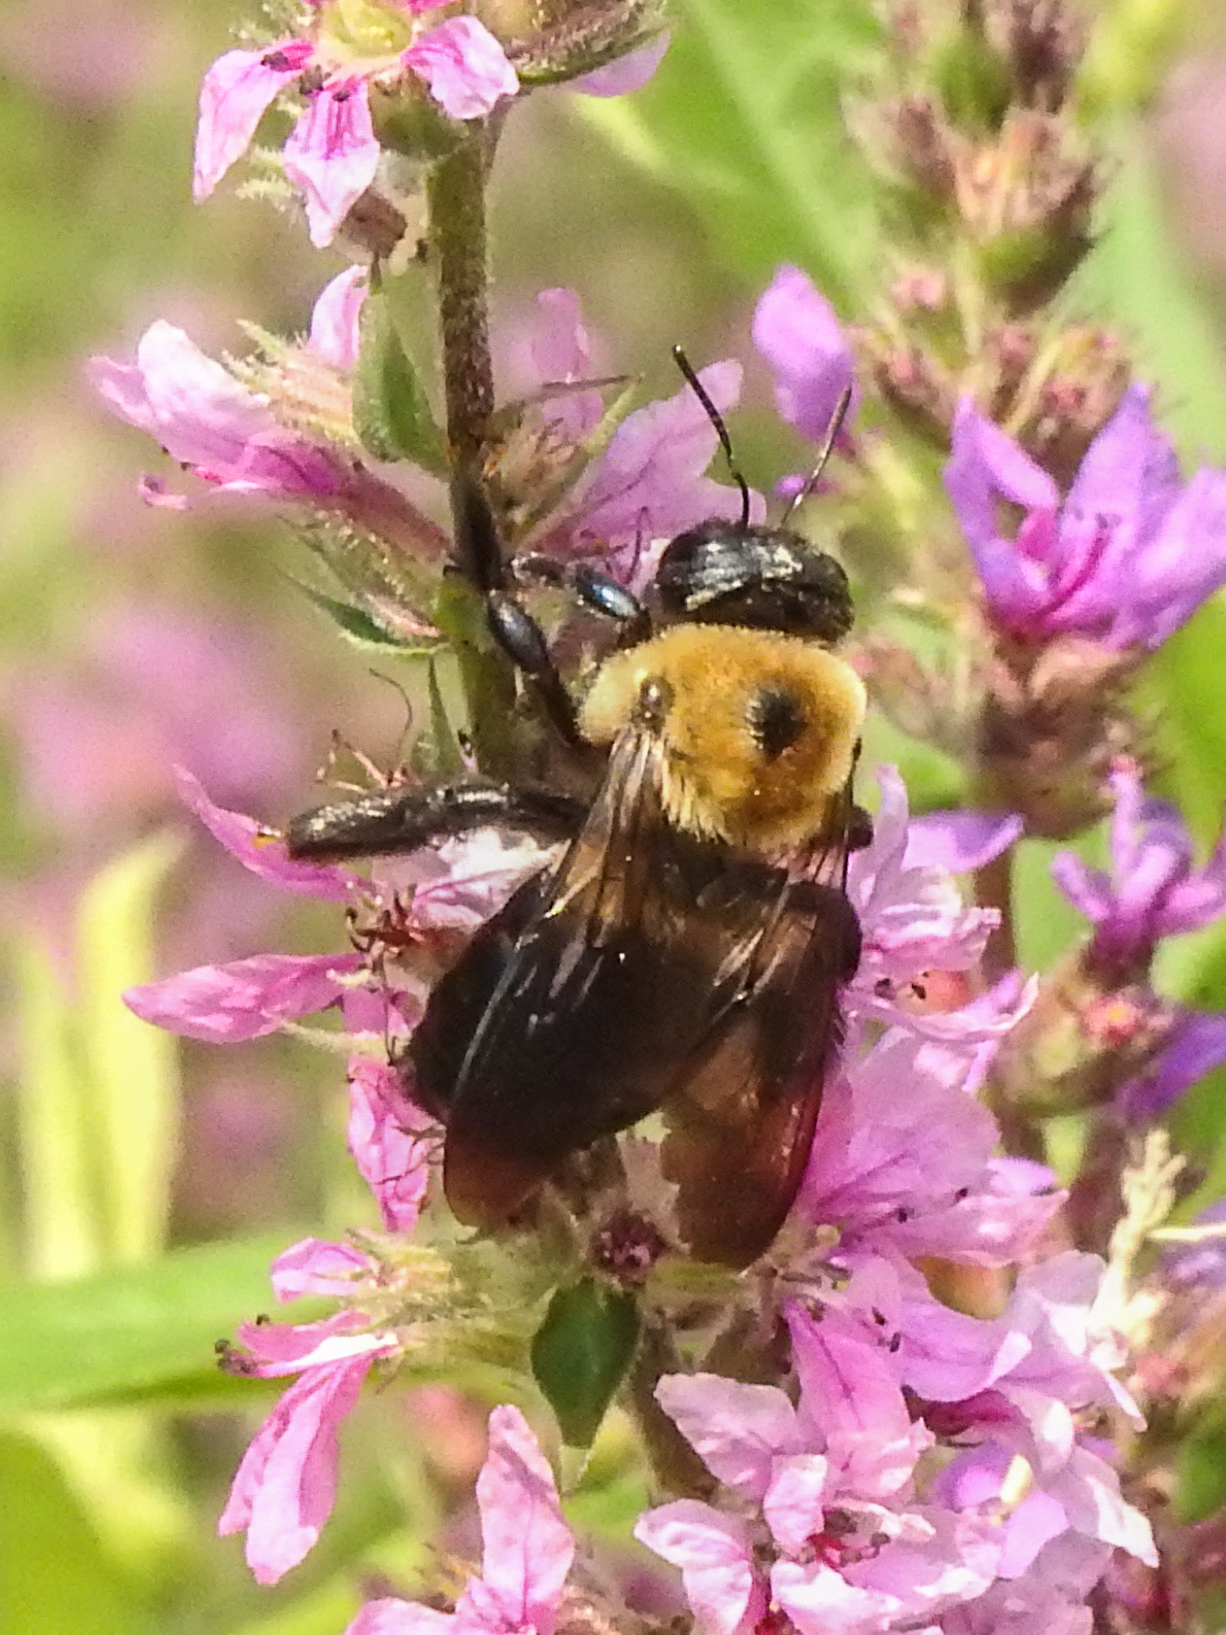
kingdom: Animalia
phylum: Arthropoda
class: Insecta
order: Hymenoptera
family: Apidae
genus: Xylocopa
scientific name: Xylocopa virginica
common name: Carpenter bee
